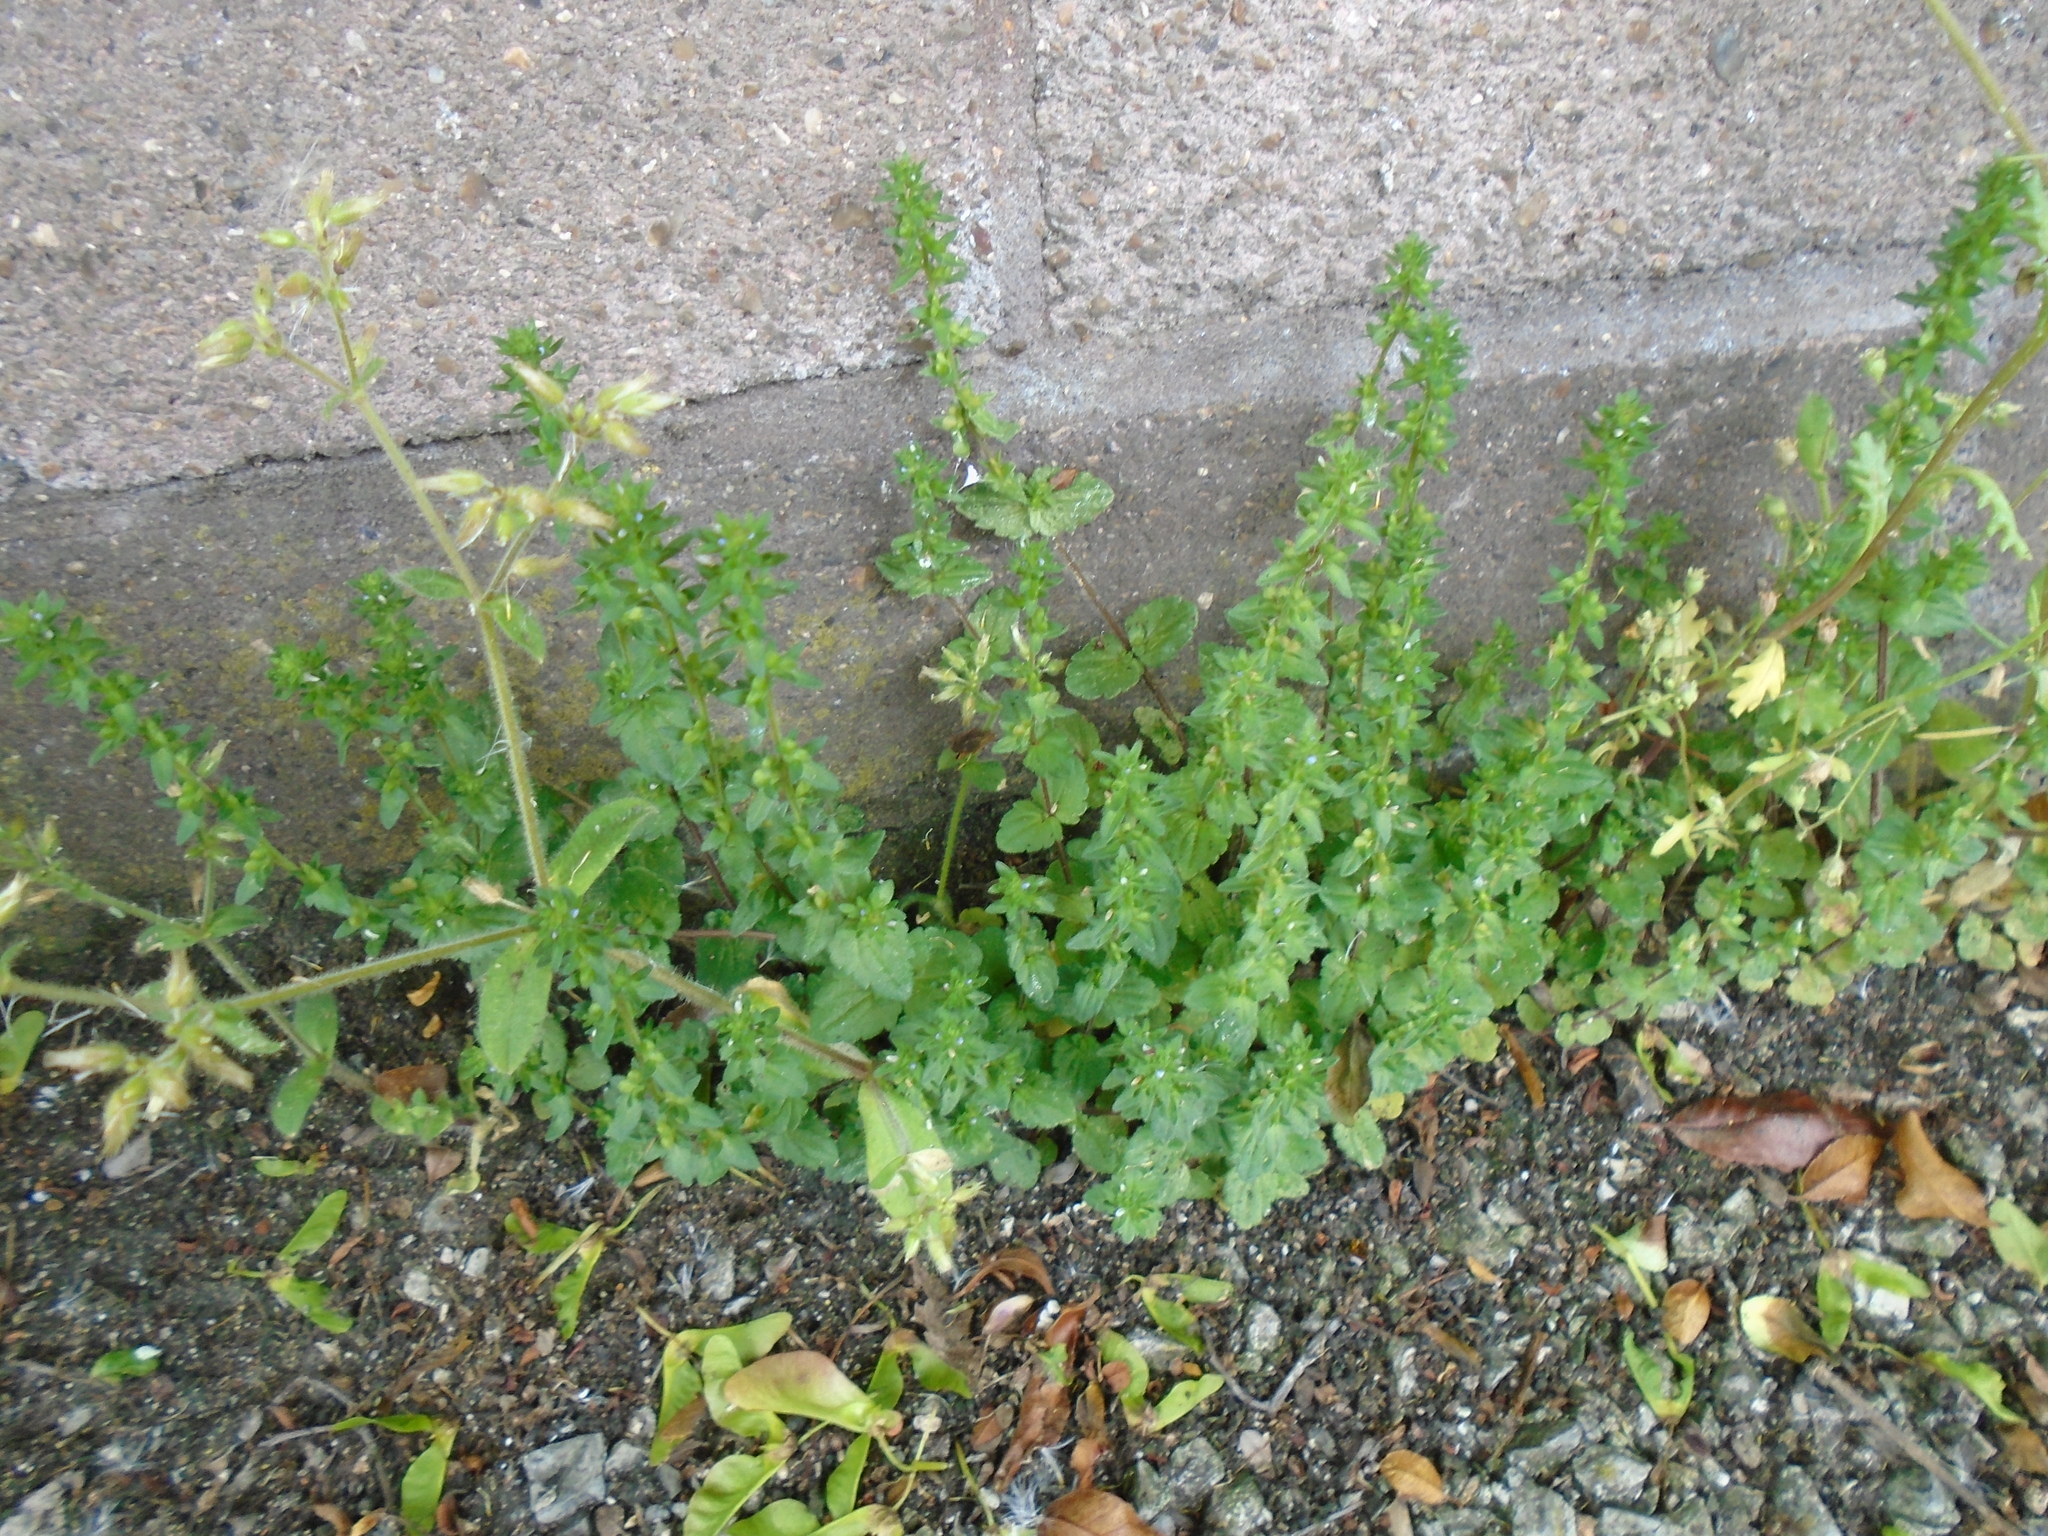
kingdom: Plantae
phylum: Tracheophyta
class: Magnoliopsida
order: Lamiales
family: Plantaginaceae
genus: Veronica
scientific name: Veronica arvensis
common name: Corn speedwell
